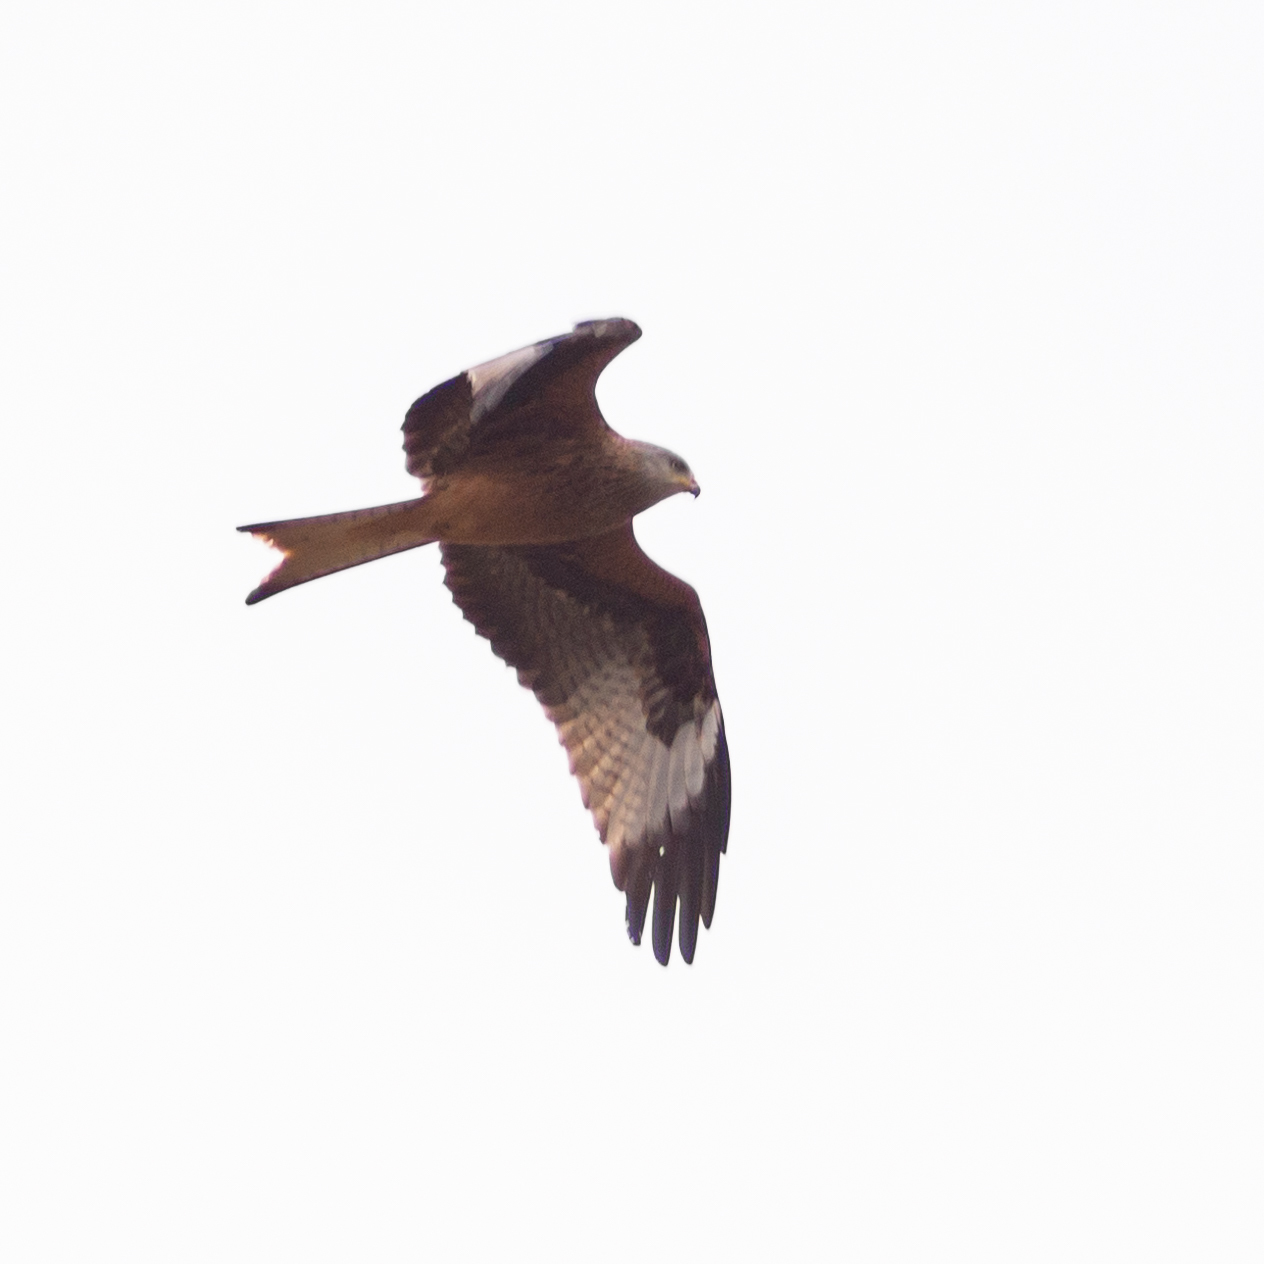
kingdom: Animalia
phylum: Chordata
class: Aves
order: Accipitriformes
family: Accipitridae
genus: Milvus
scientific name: Milvus milvus
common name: Red kite
